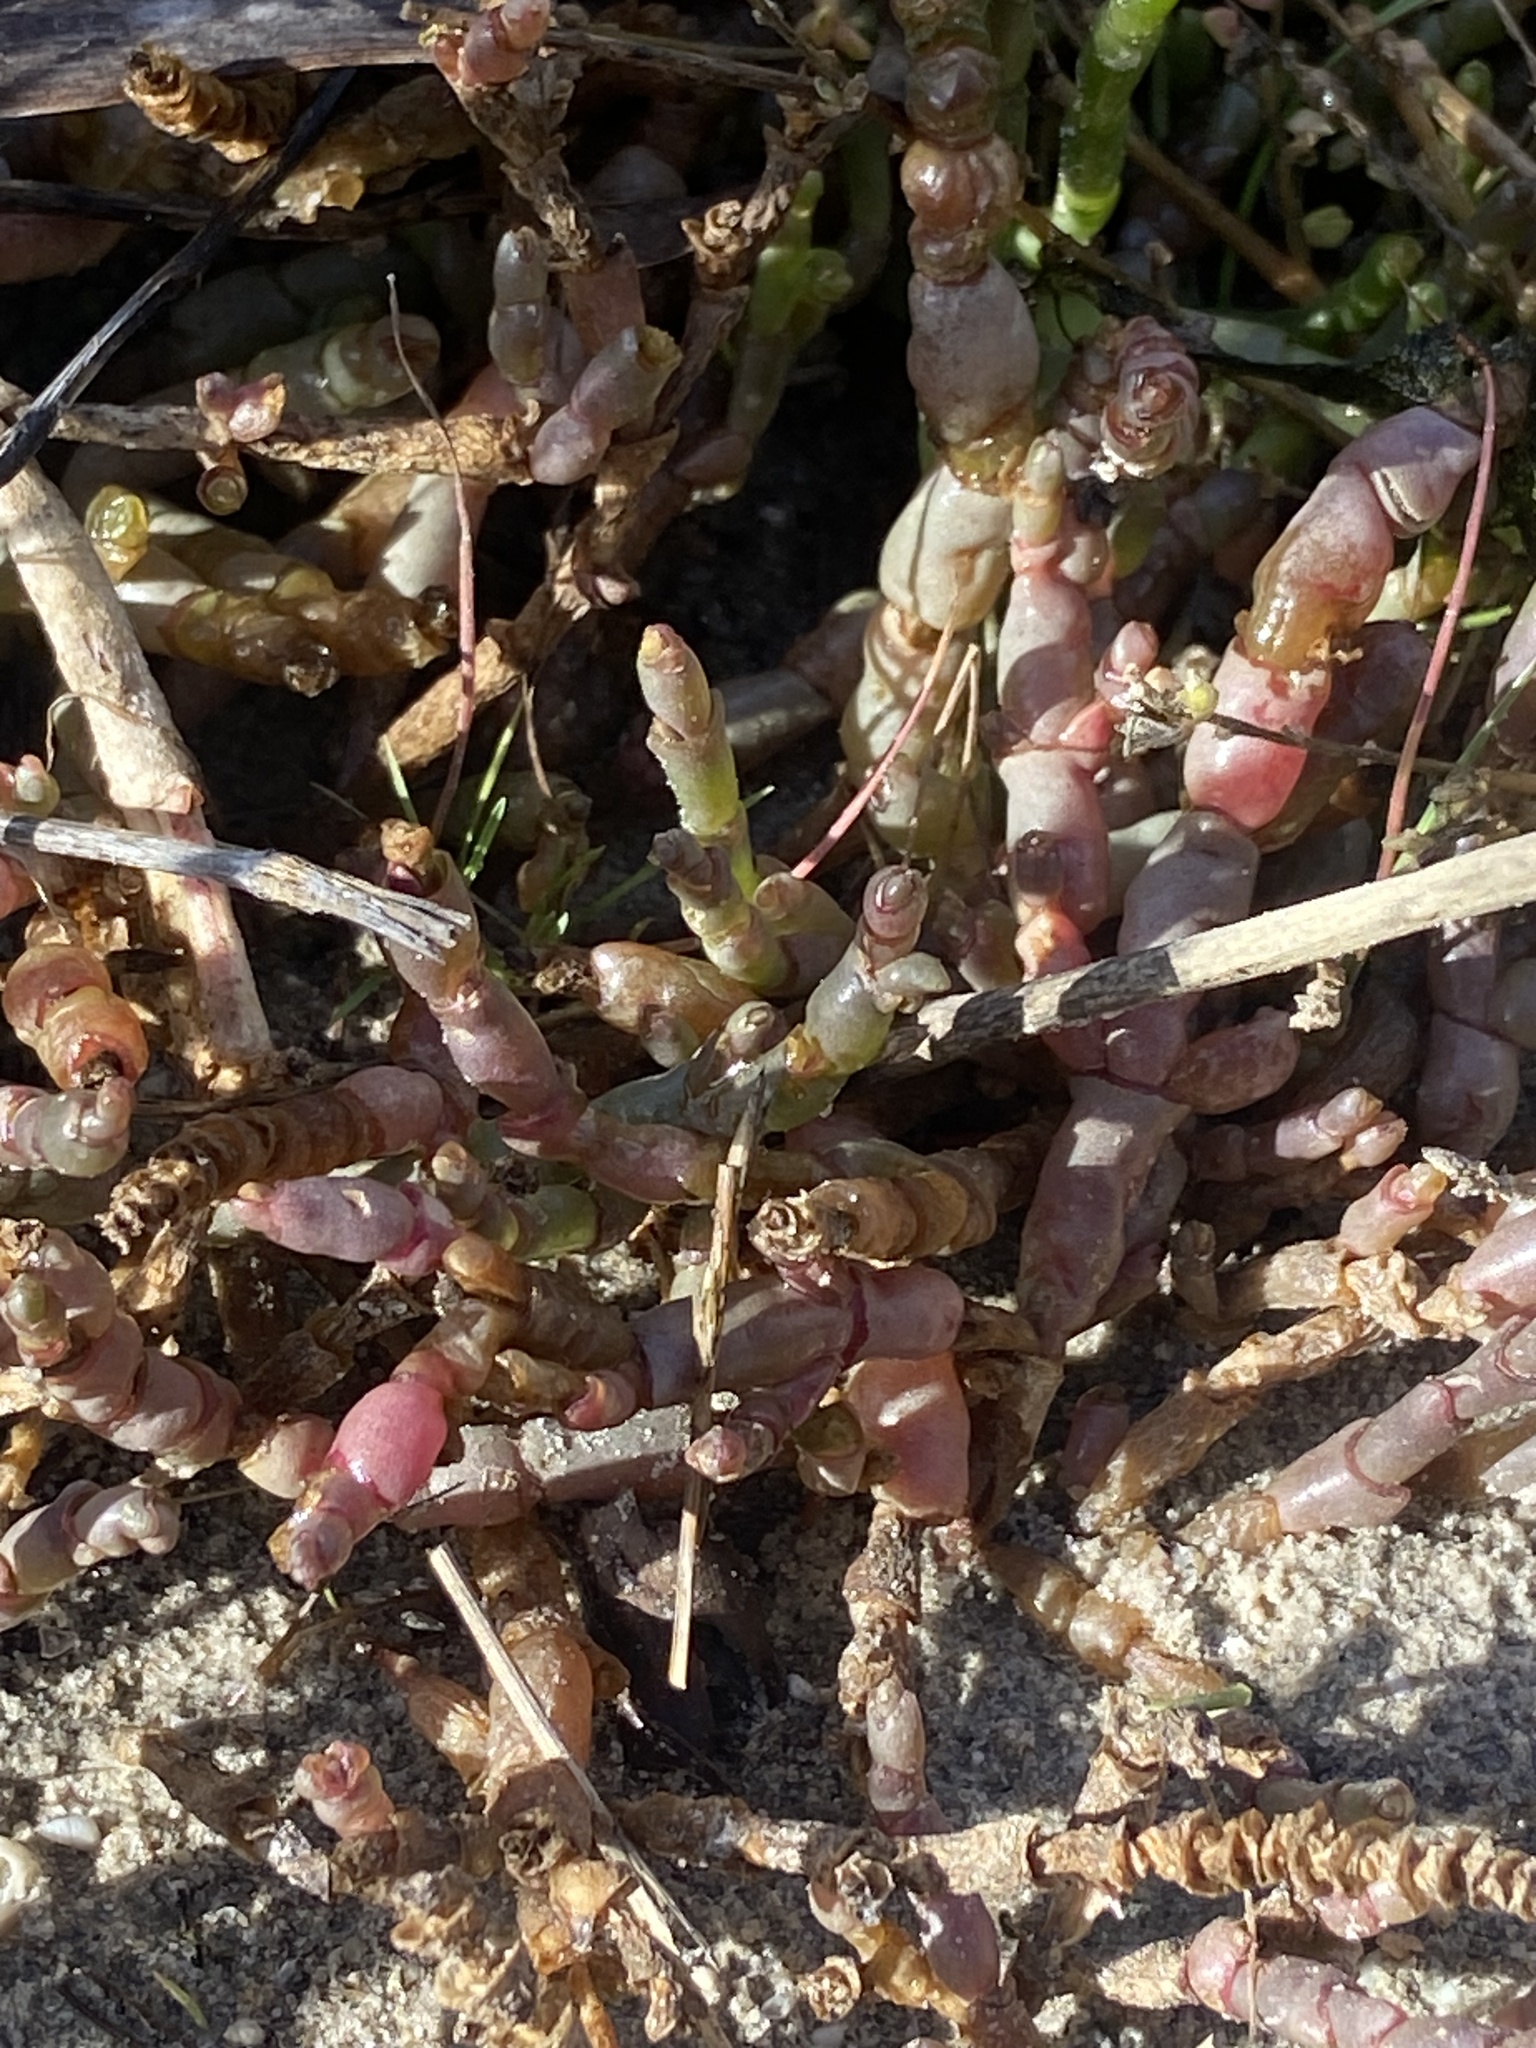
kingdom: Plantae
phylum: Tracheophyta
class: Magnoliopsida
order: Caryophyllales
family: Amaranthaceae
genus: Salicornia
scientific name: Salicornia natalensis
